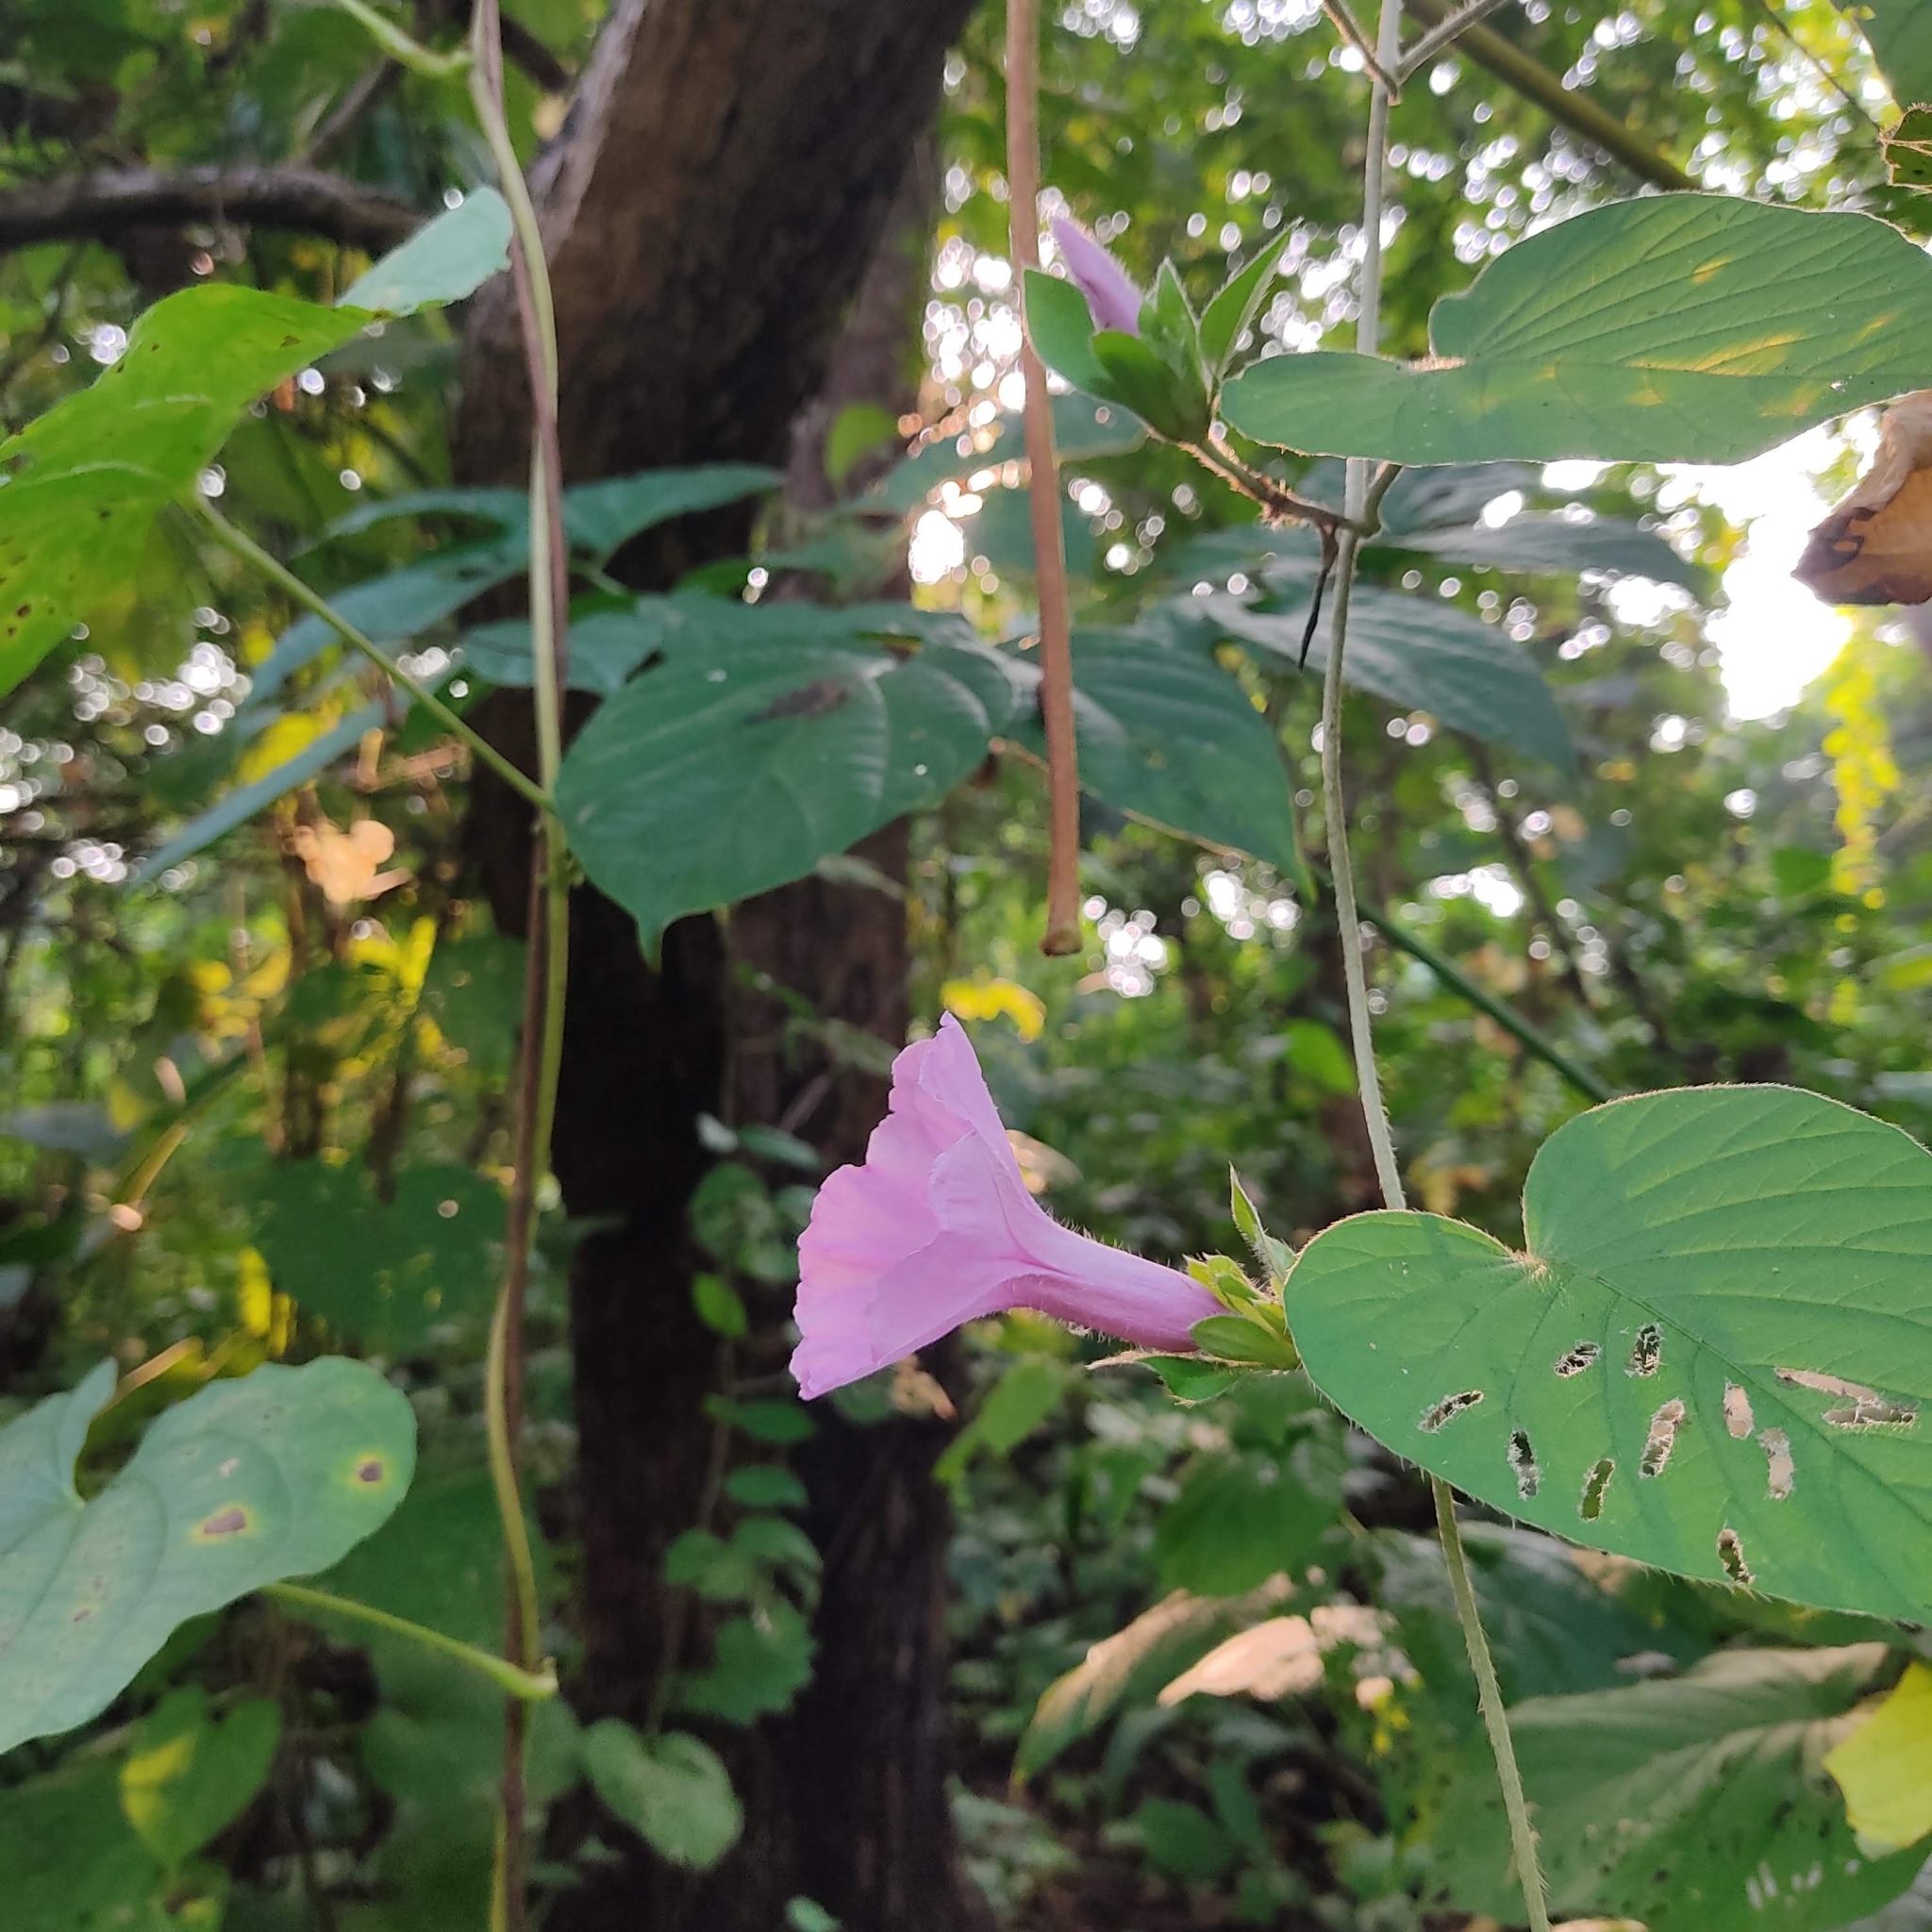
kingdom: Plantae
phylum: Tracheophyta
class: Magnoliopsida
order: Solanales
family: Convolvulaceae
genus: Argyreia
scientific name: Argyreia sericea
